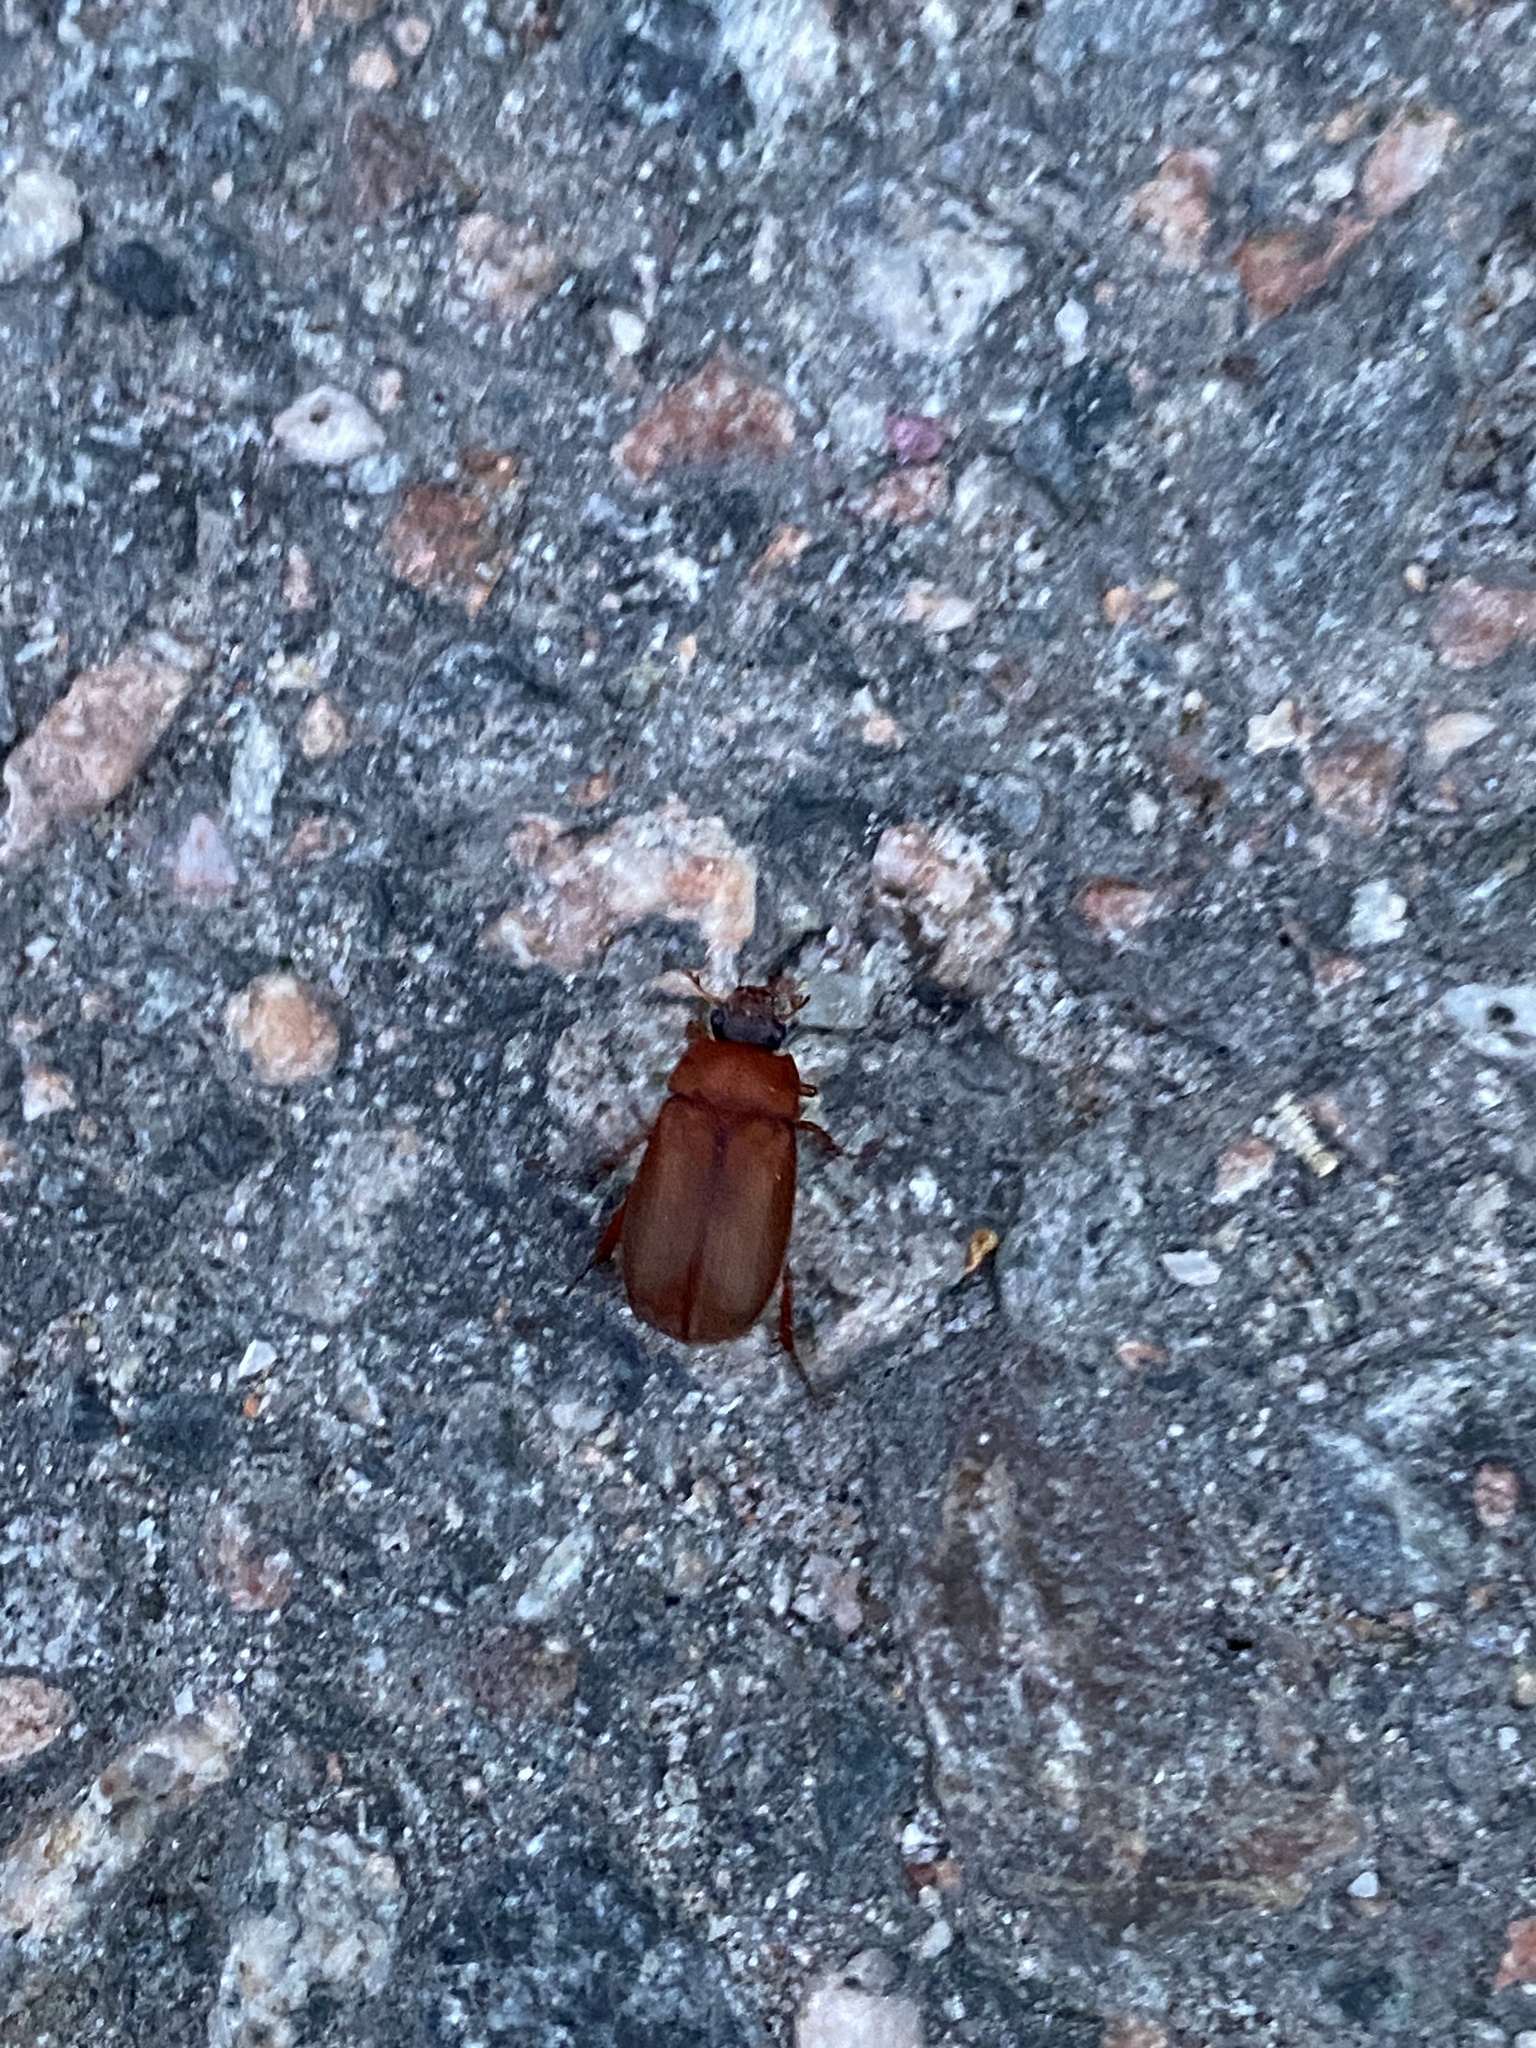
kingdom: Animalia
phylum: Arthropoda
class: Insecta
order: Coleoptera
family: Scarabaeidae
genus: Serica
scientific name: Serica brunnea
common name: Brown chafer
